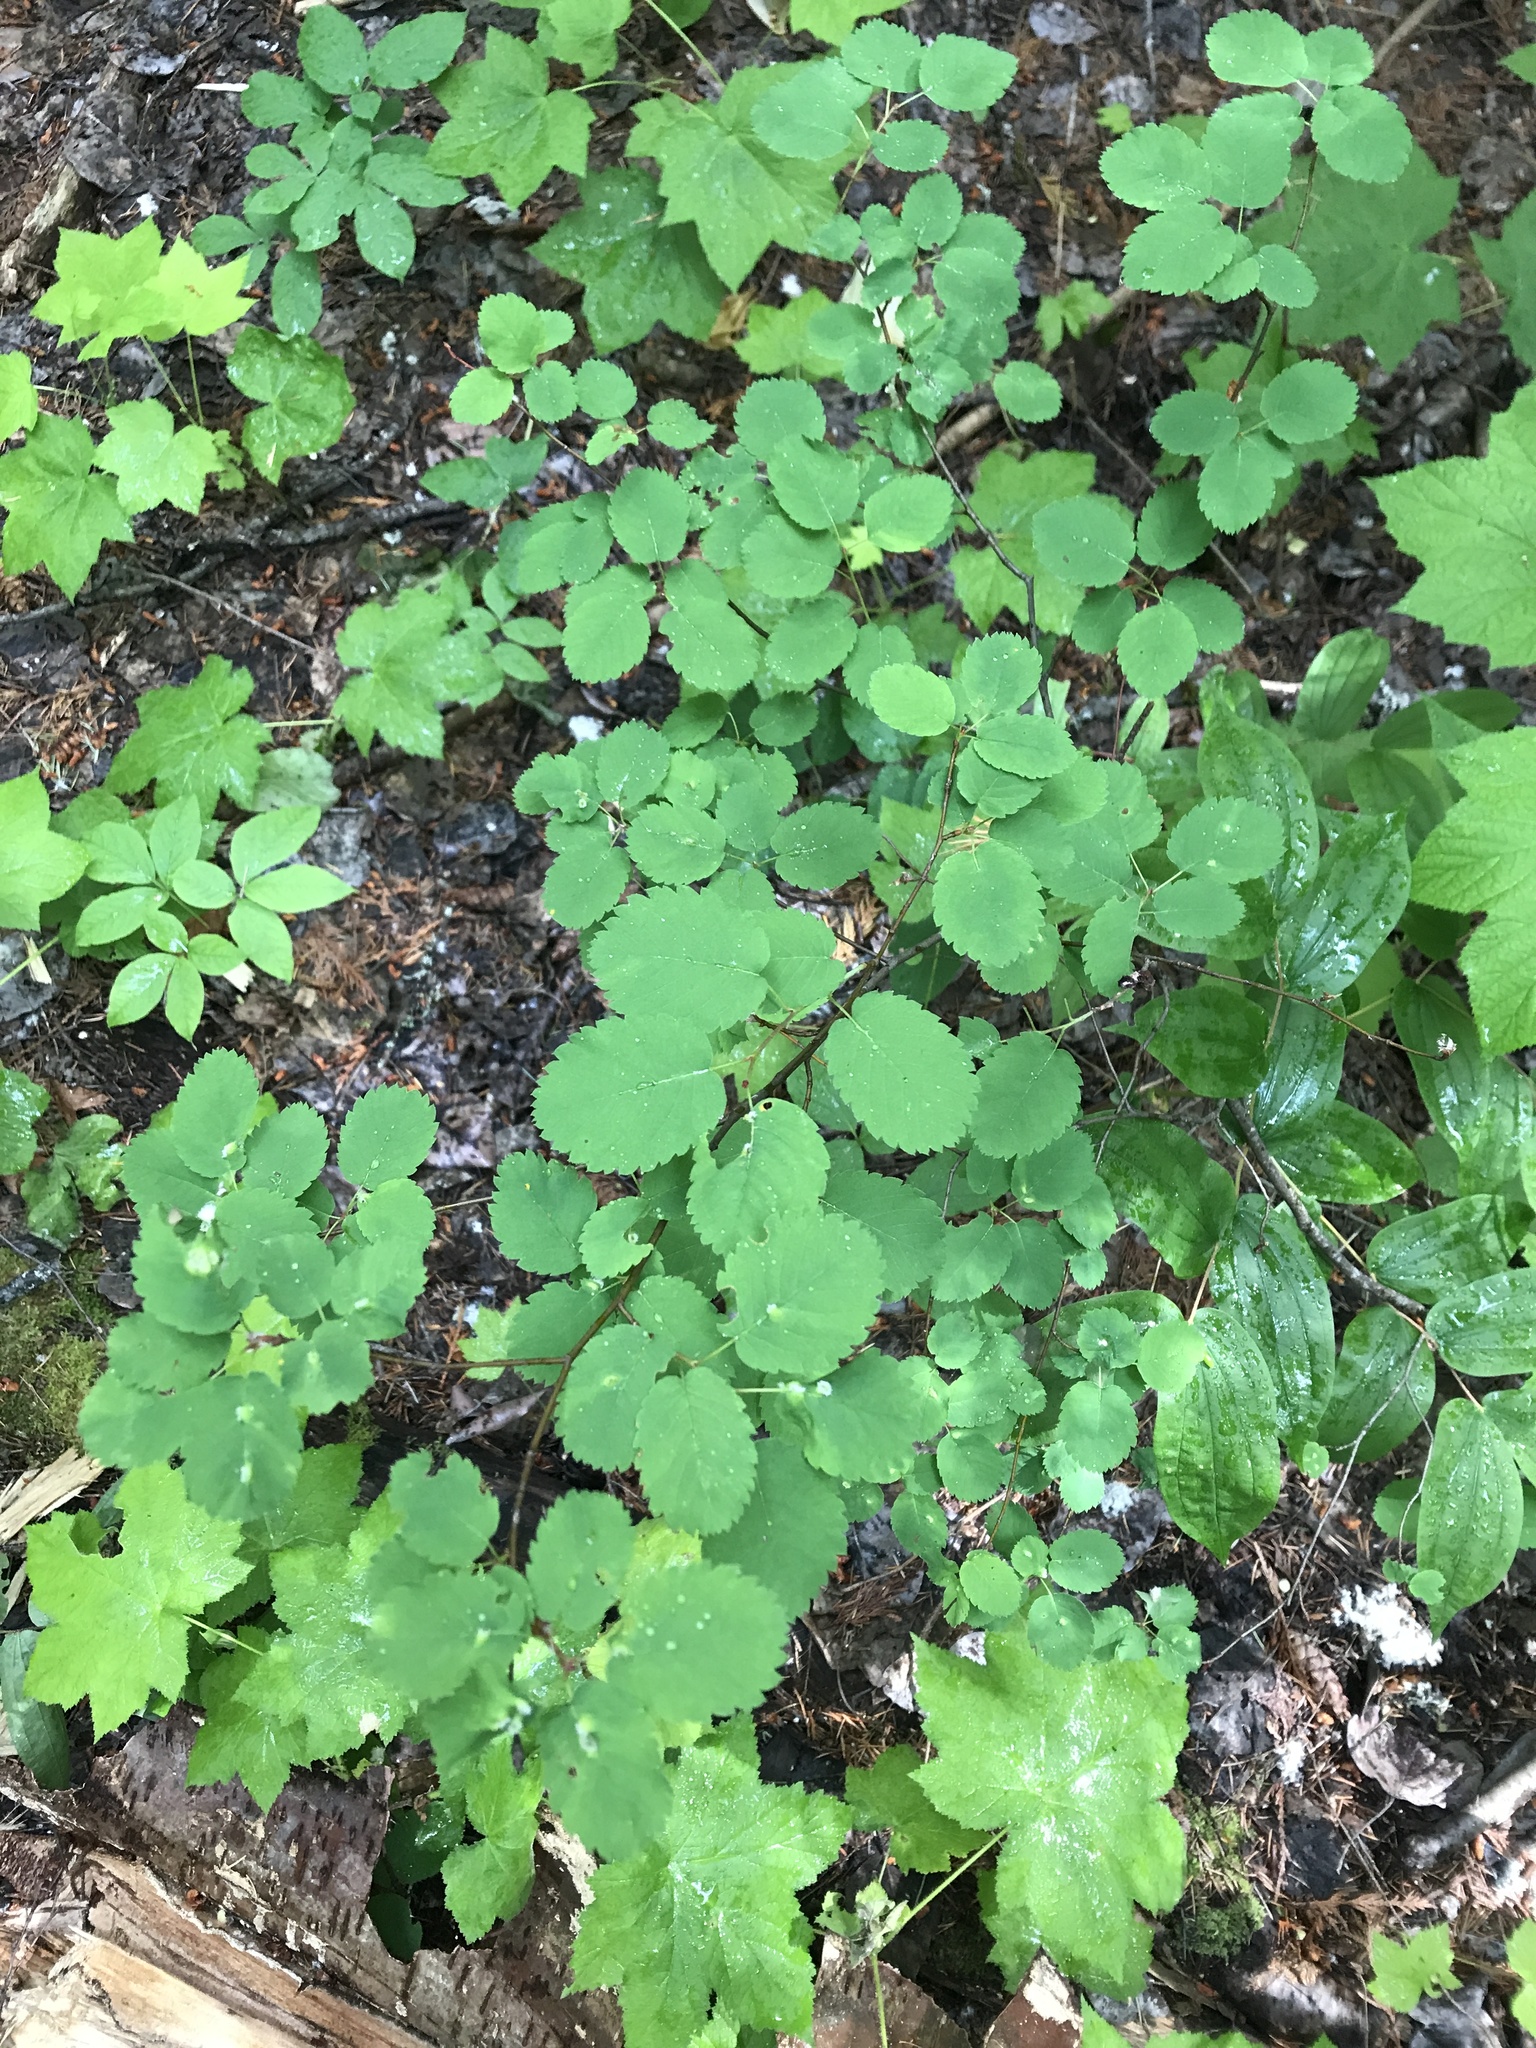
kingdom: Plantae
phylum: Tracheophyta
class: Magnoliopsida
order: Rosales
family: Rosaceae
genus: Amelanchier
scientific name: Amelanchier alnifolia
